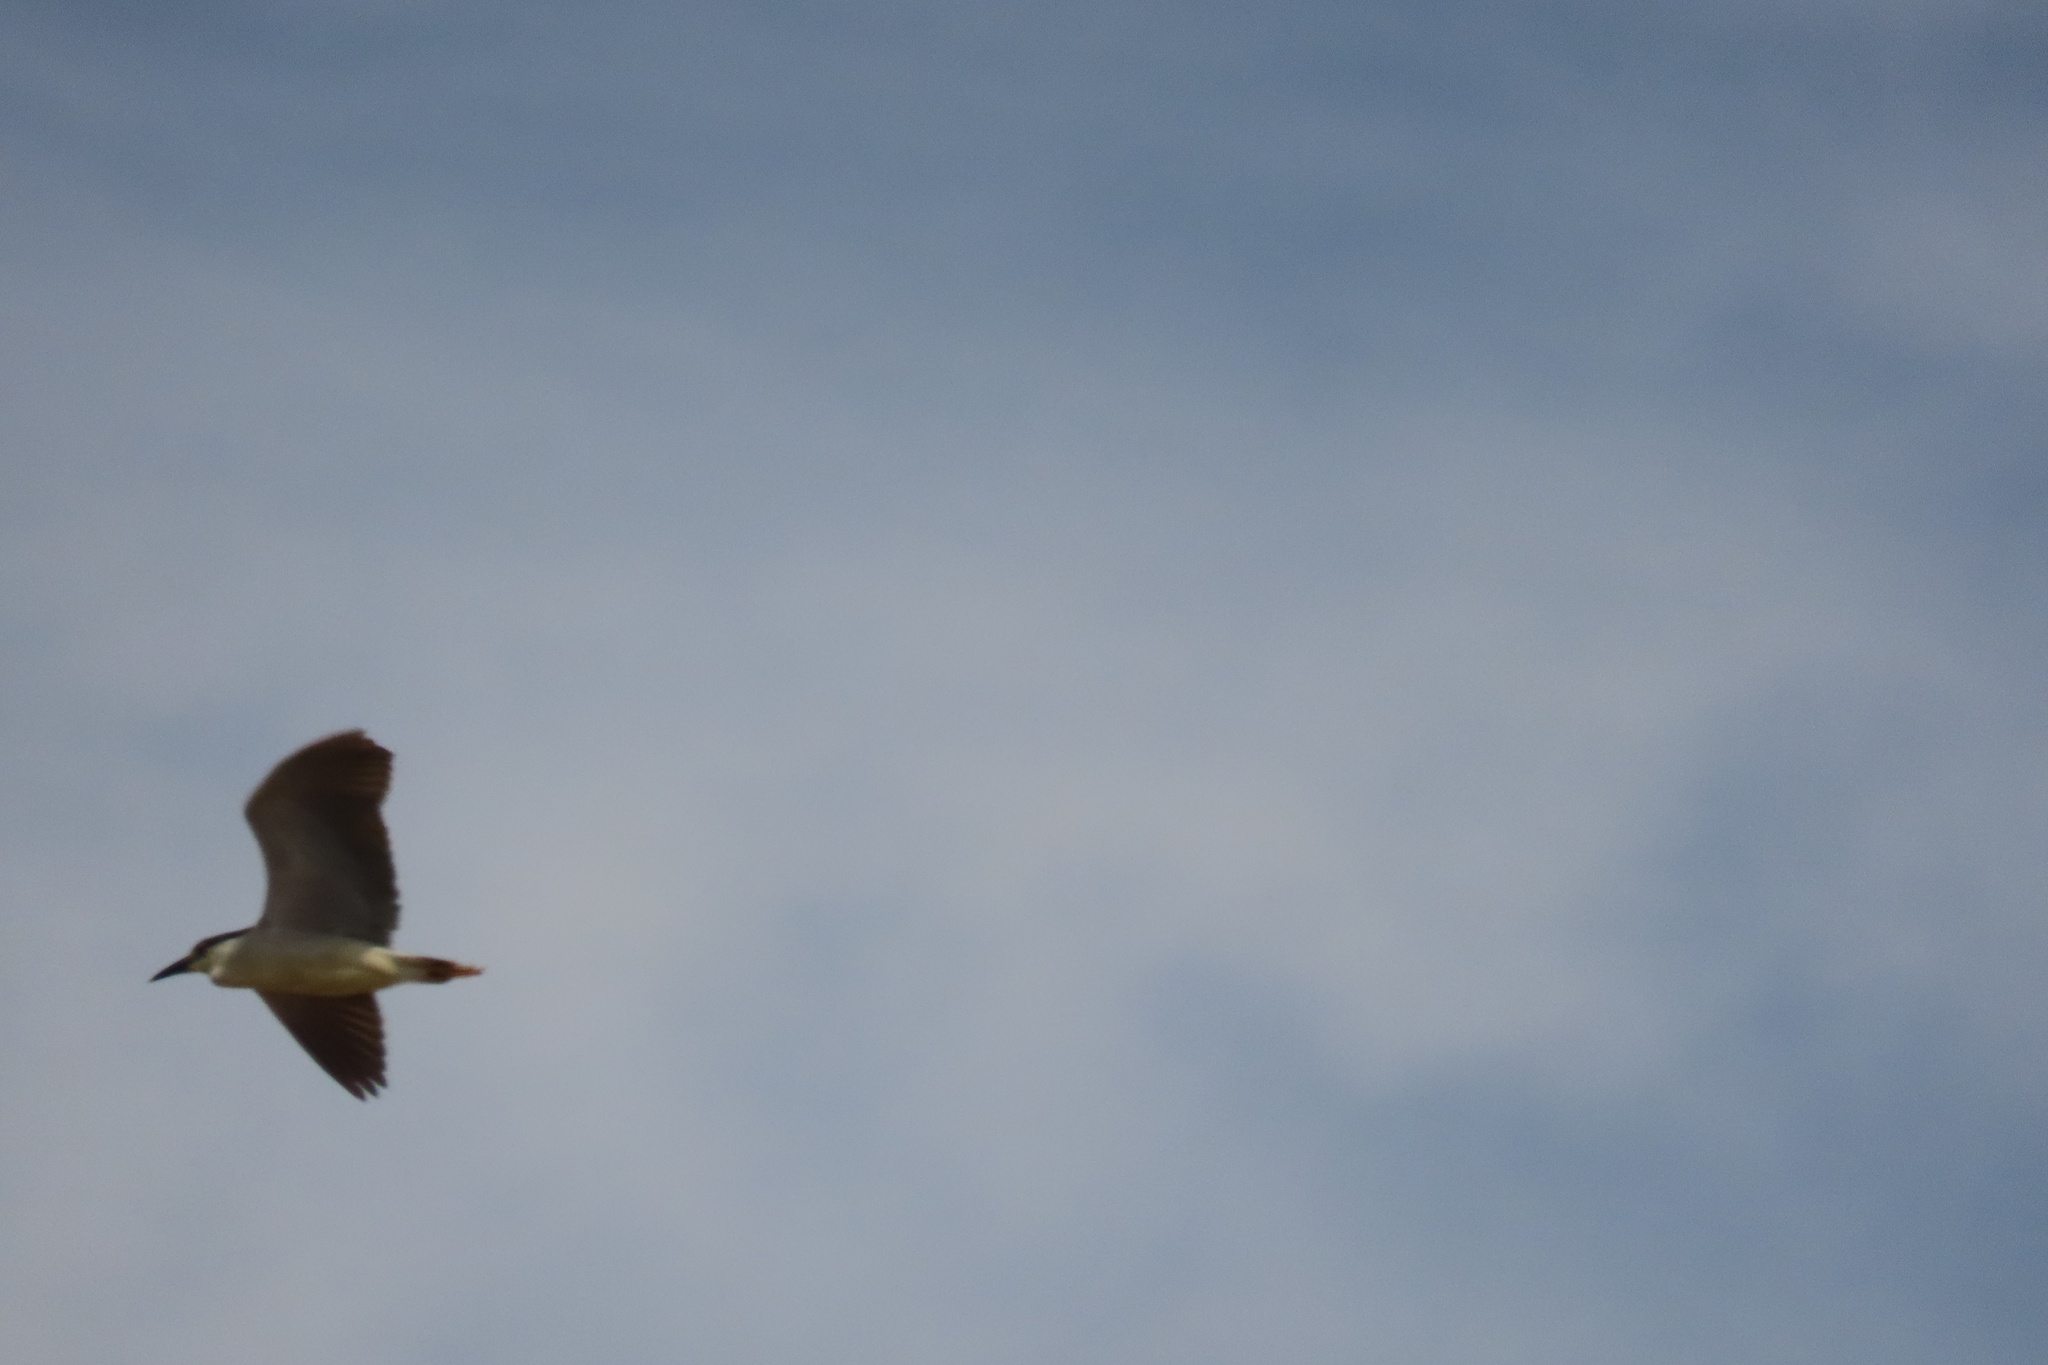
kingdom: Animalia
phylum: Chordata
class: Aves
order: Pelecaniformes
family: Ardeidae
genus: Nycticorax
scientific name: Nycticorax nycticorax
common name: Black-crowned night heron
